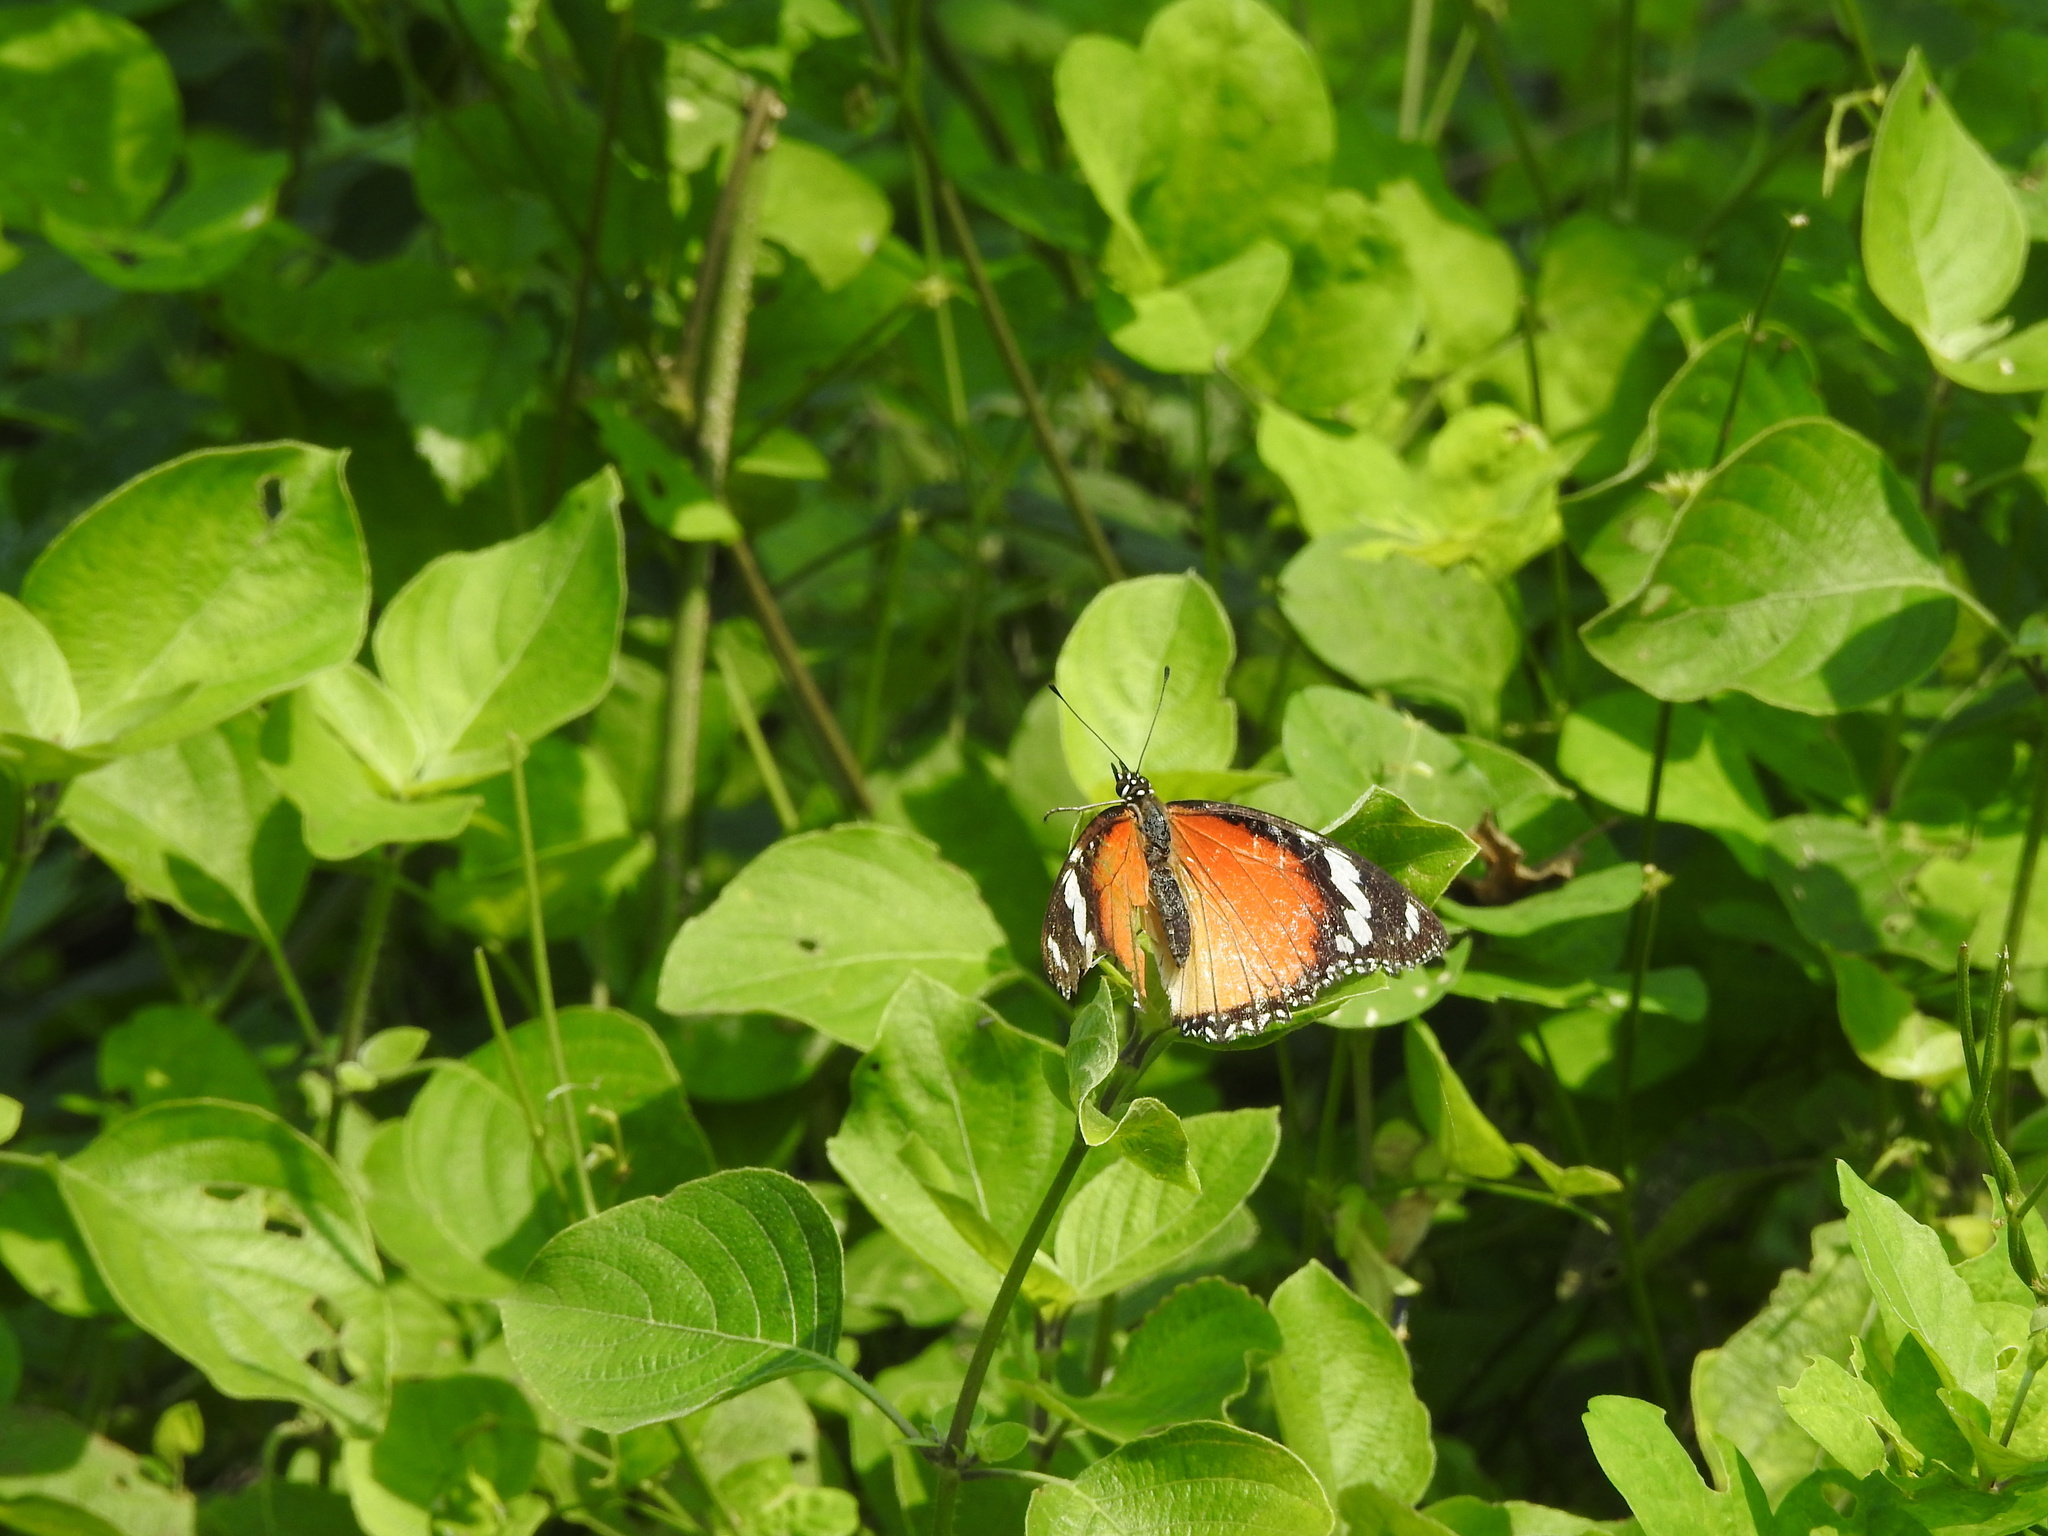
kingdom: Animalia
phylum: Arthropoda
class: Insecta
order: Lepidoptera
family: Nymphalidae
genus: Hypolimnas
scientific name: Hypolimnas misippus
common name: False plain tiger
